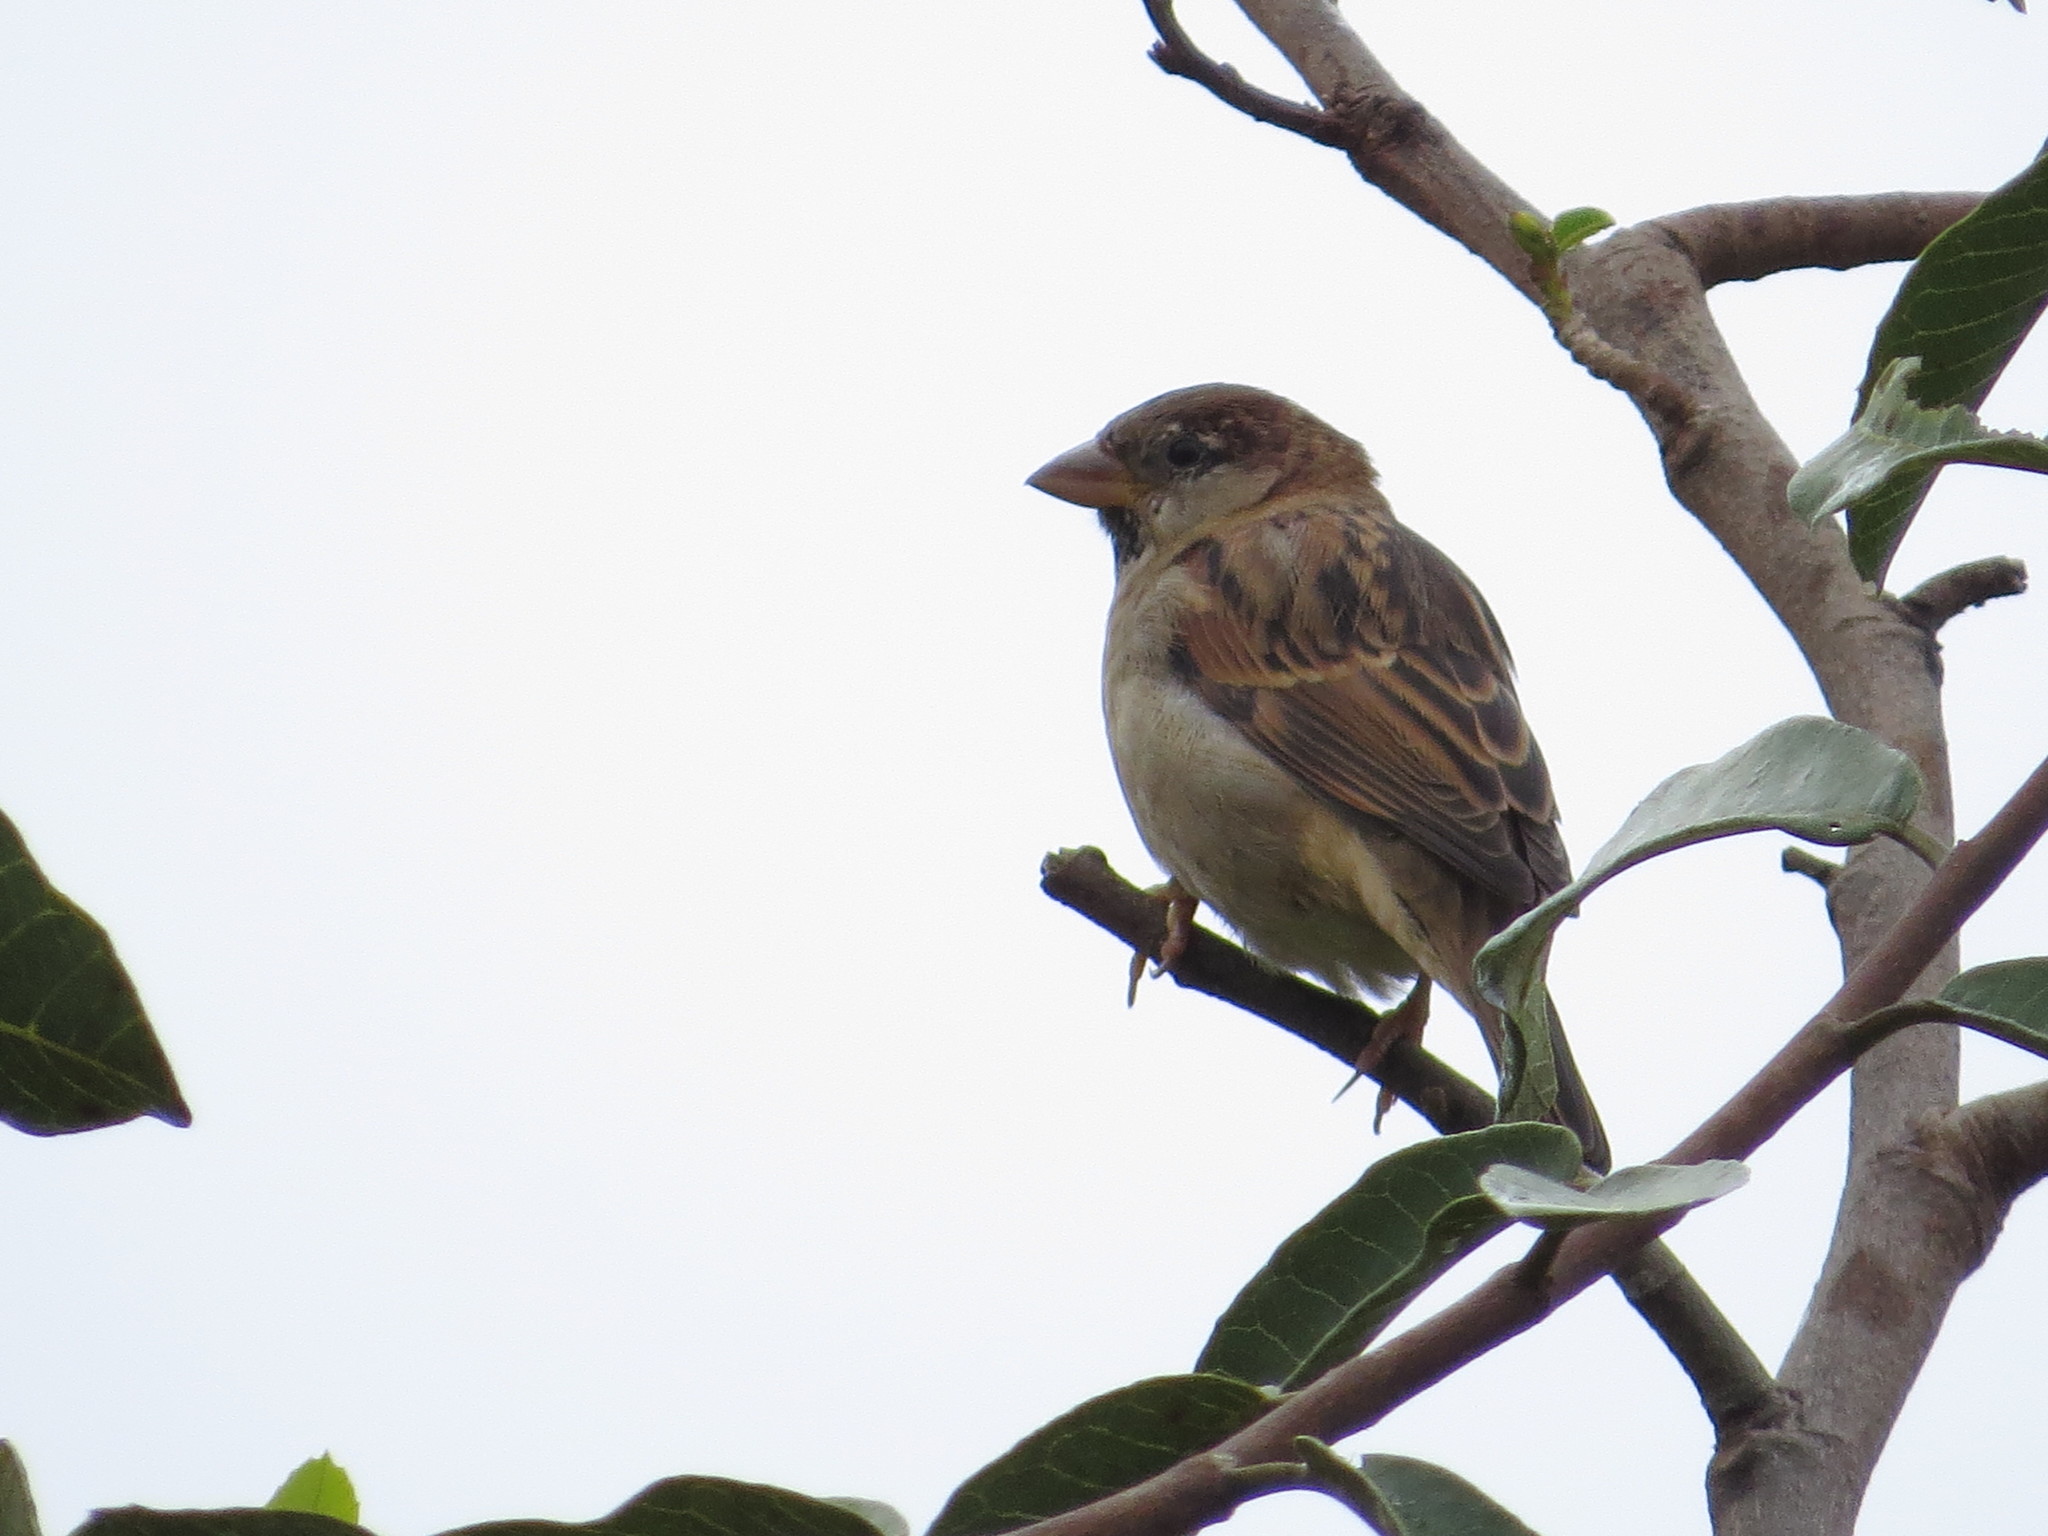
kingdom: Animalia
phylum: Chordata
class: Aves
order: Passeriformes
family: Passeridae
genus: Passer
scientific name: Passer domesticus
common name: House sparrow
